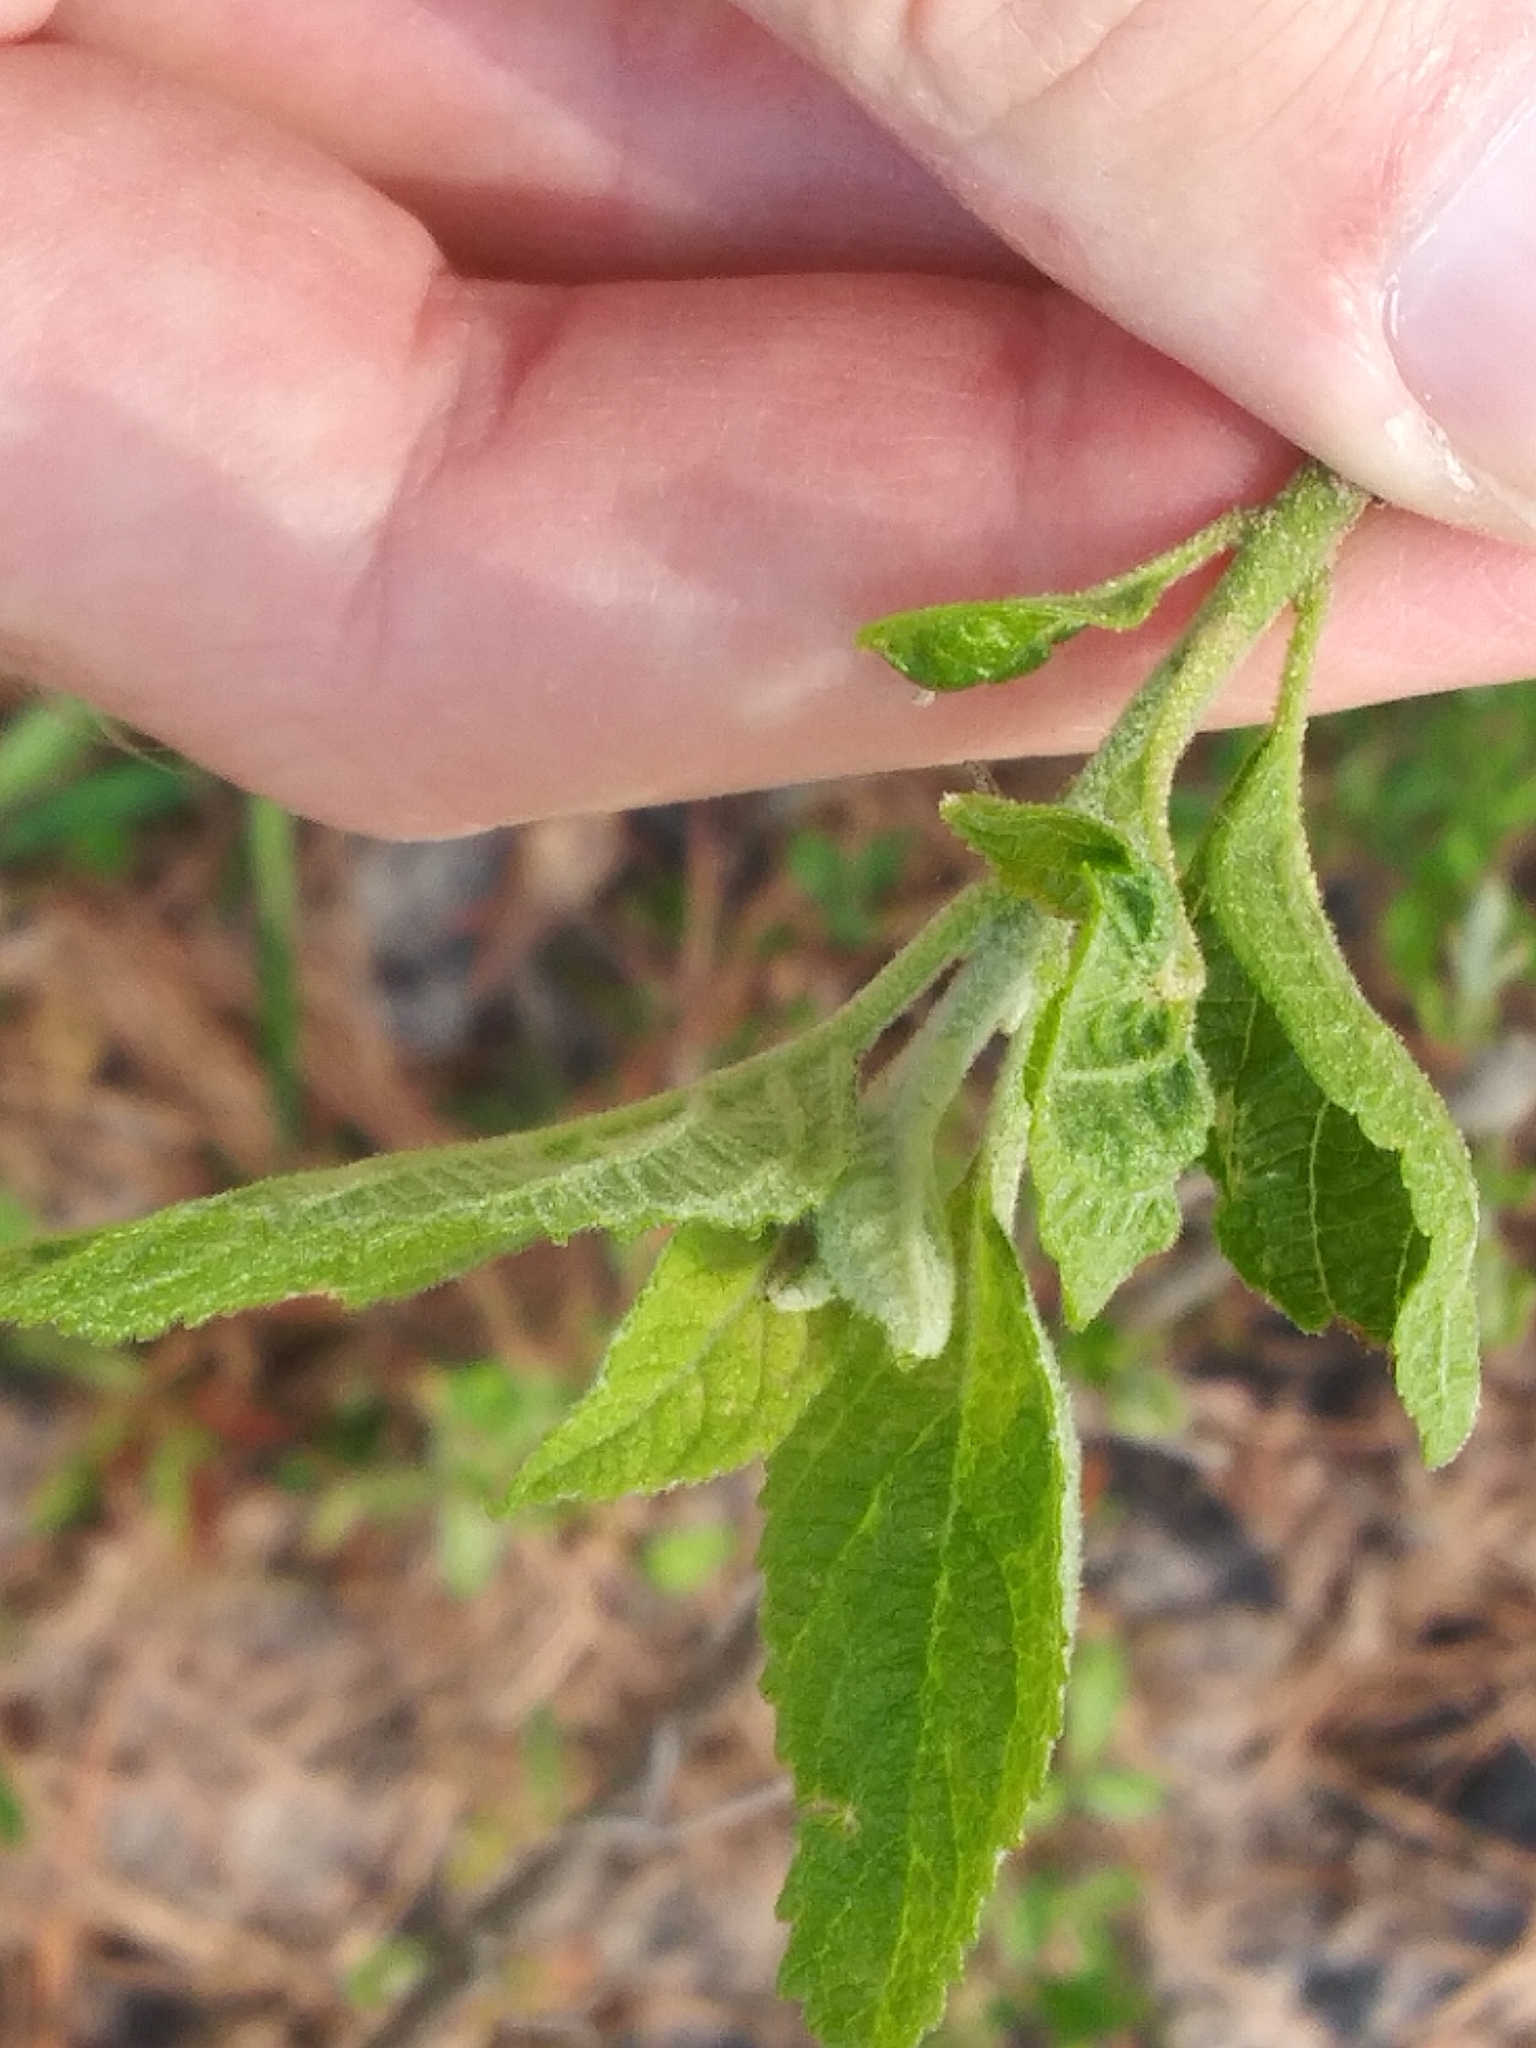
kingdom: Plantae
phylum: Tracheophyta
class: Magnoliopsida
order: Lamiales
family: Lamiaceae
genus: Callicarpa
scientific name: Callicarpa americana
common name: American beautyberry
